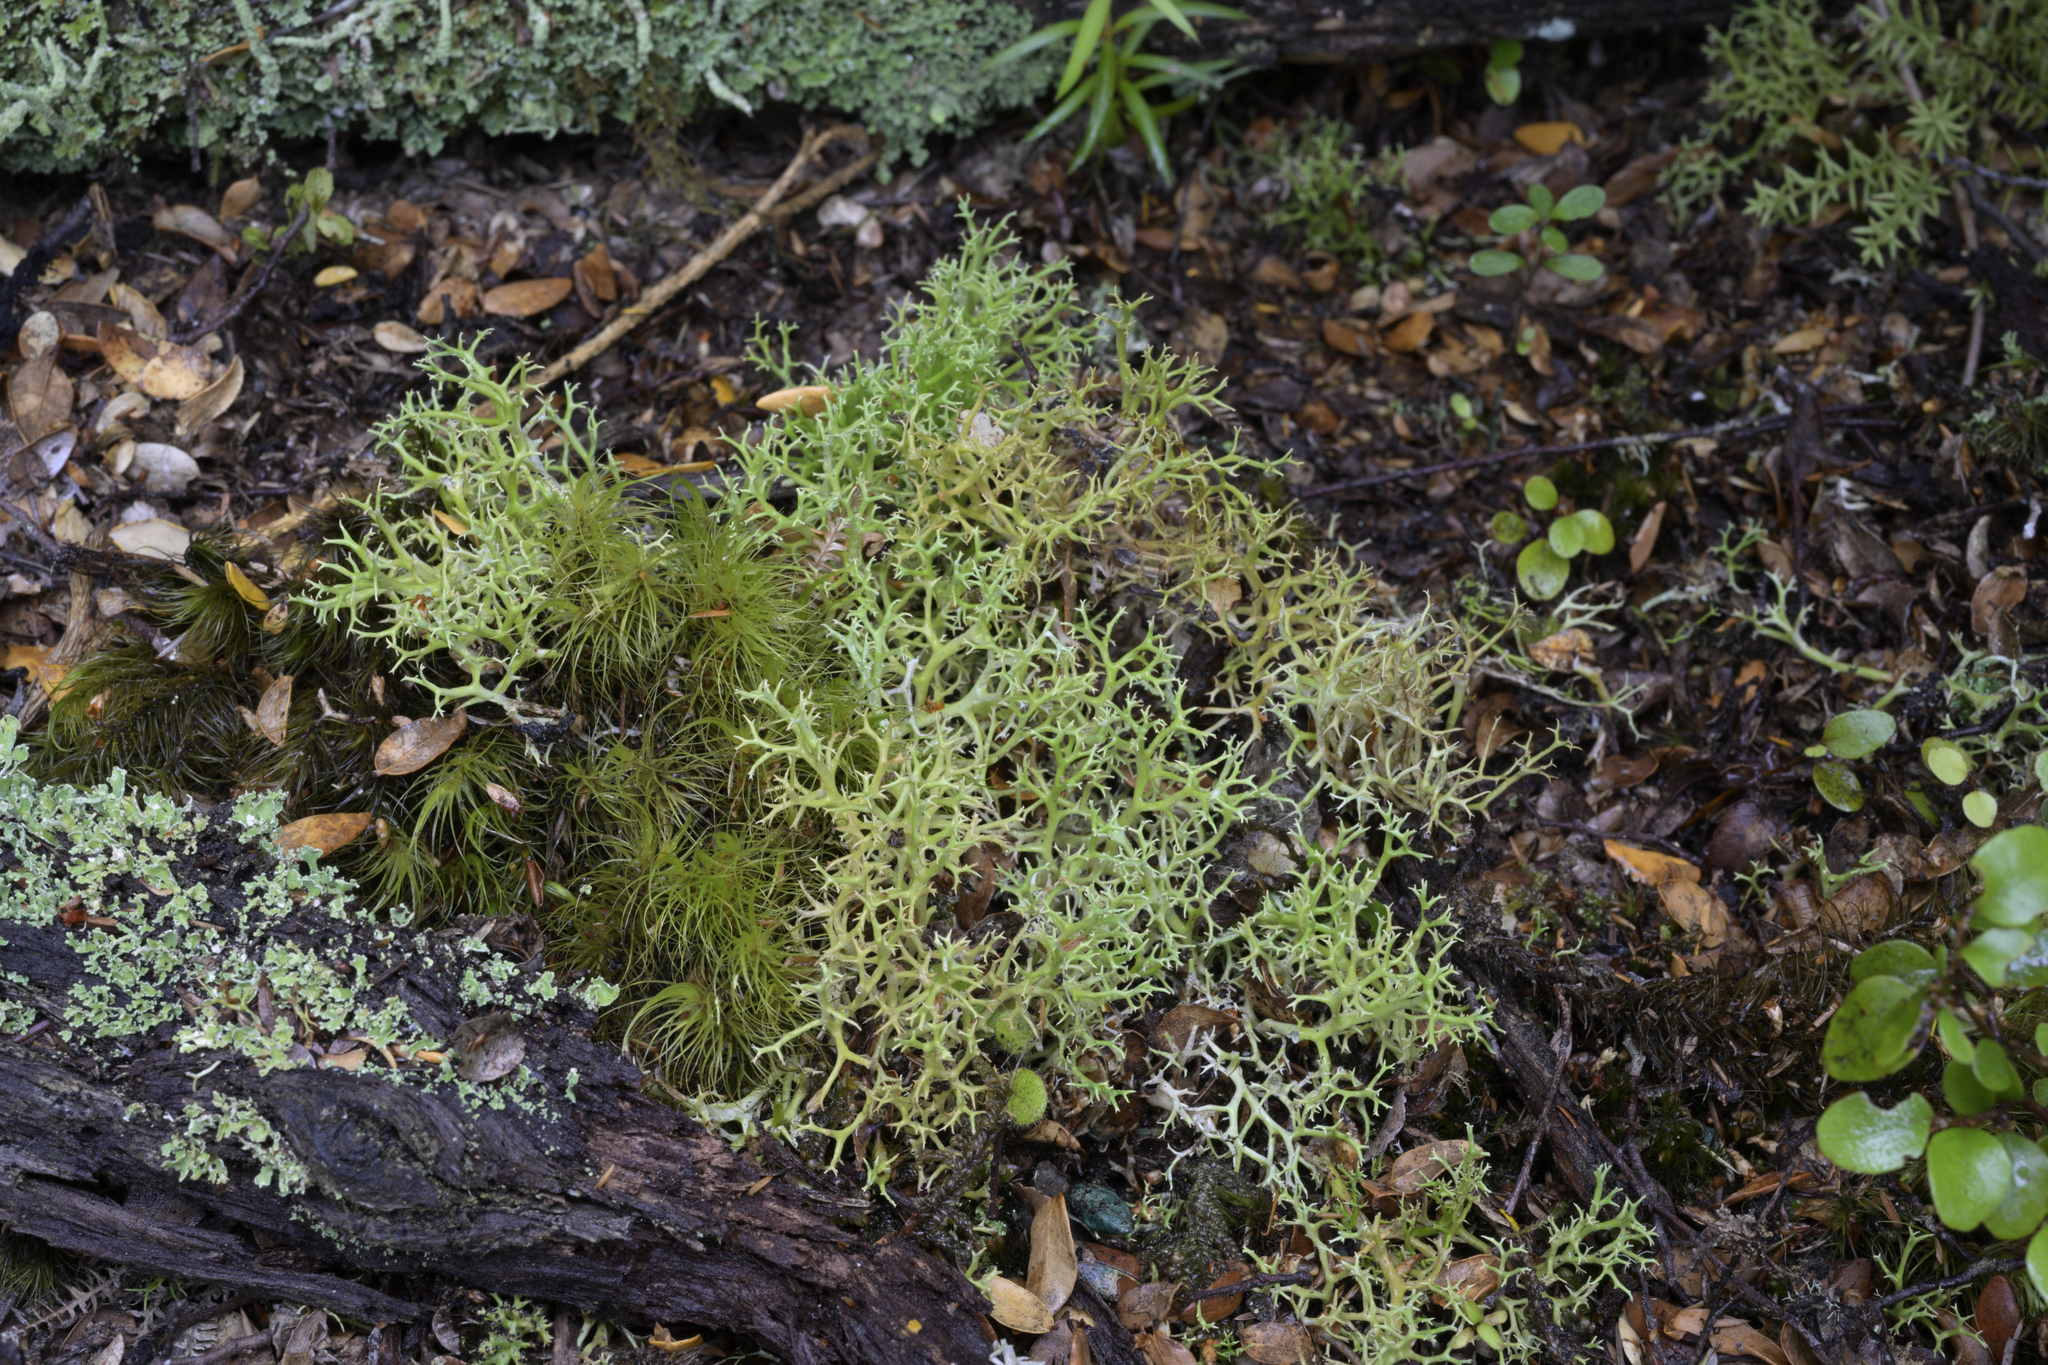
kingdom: Fungi
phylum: Ascomycota
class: Lecanoromycetes
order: Lecanorales
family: Cladoniaceae
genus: Cladia
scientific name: Cladia aggregata
